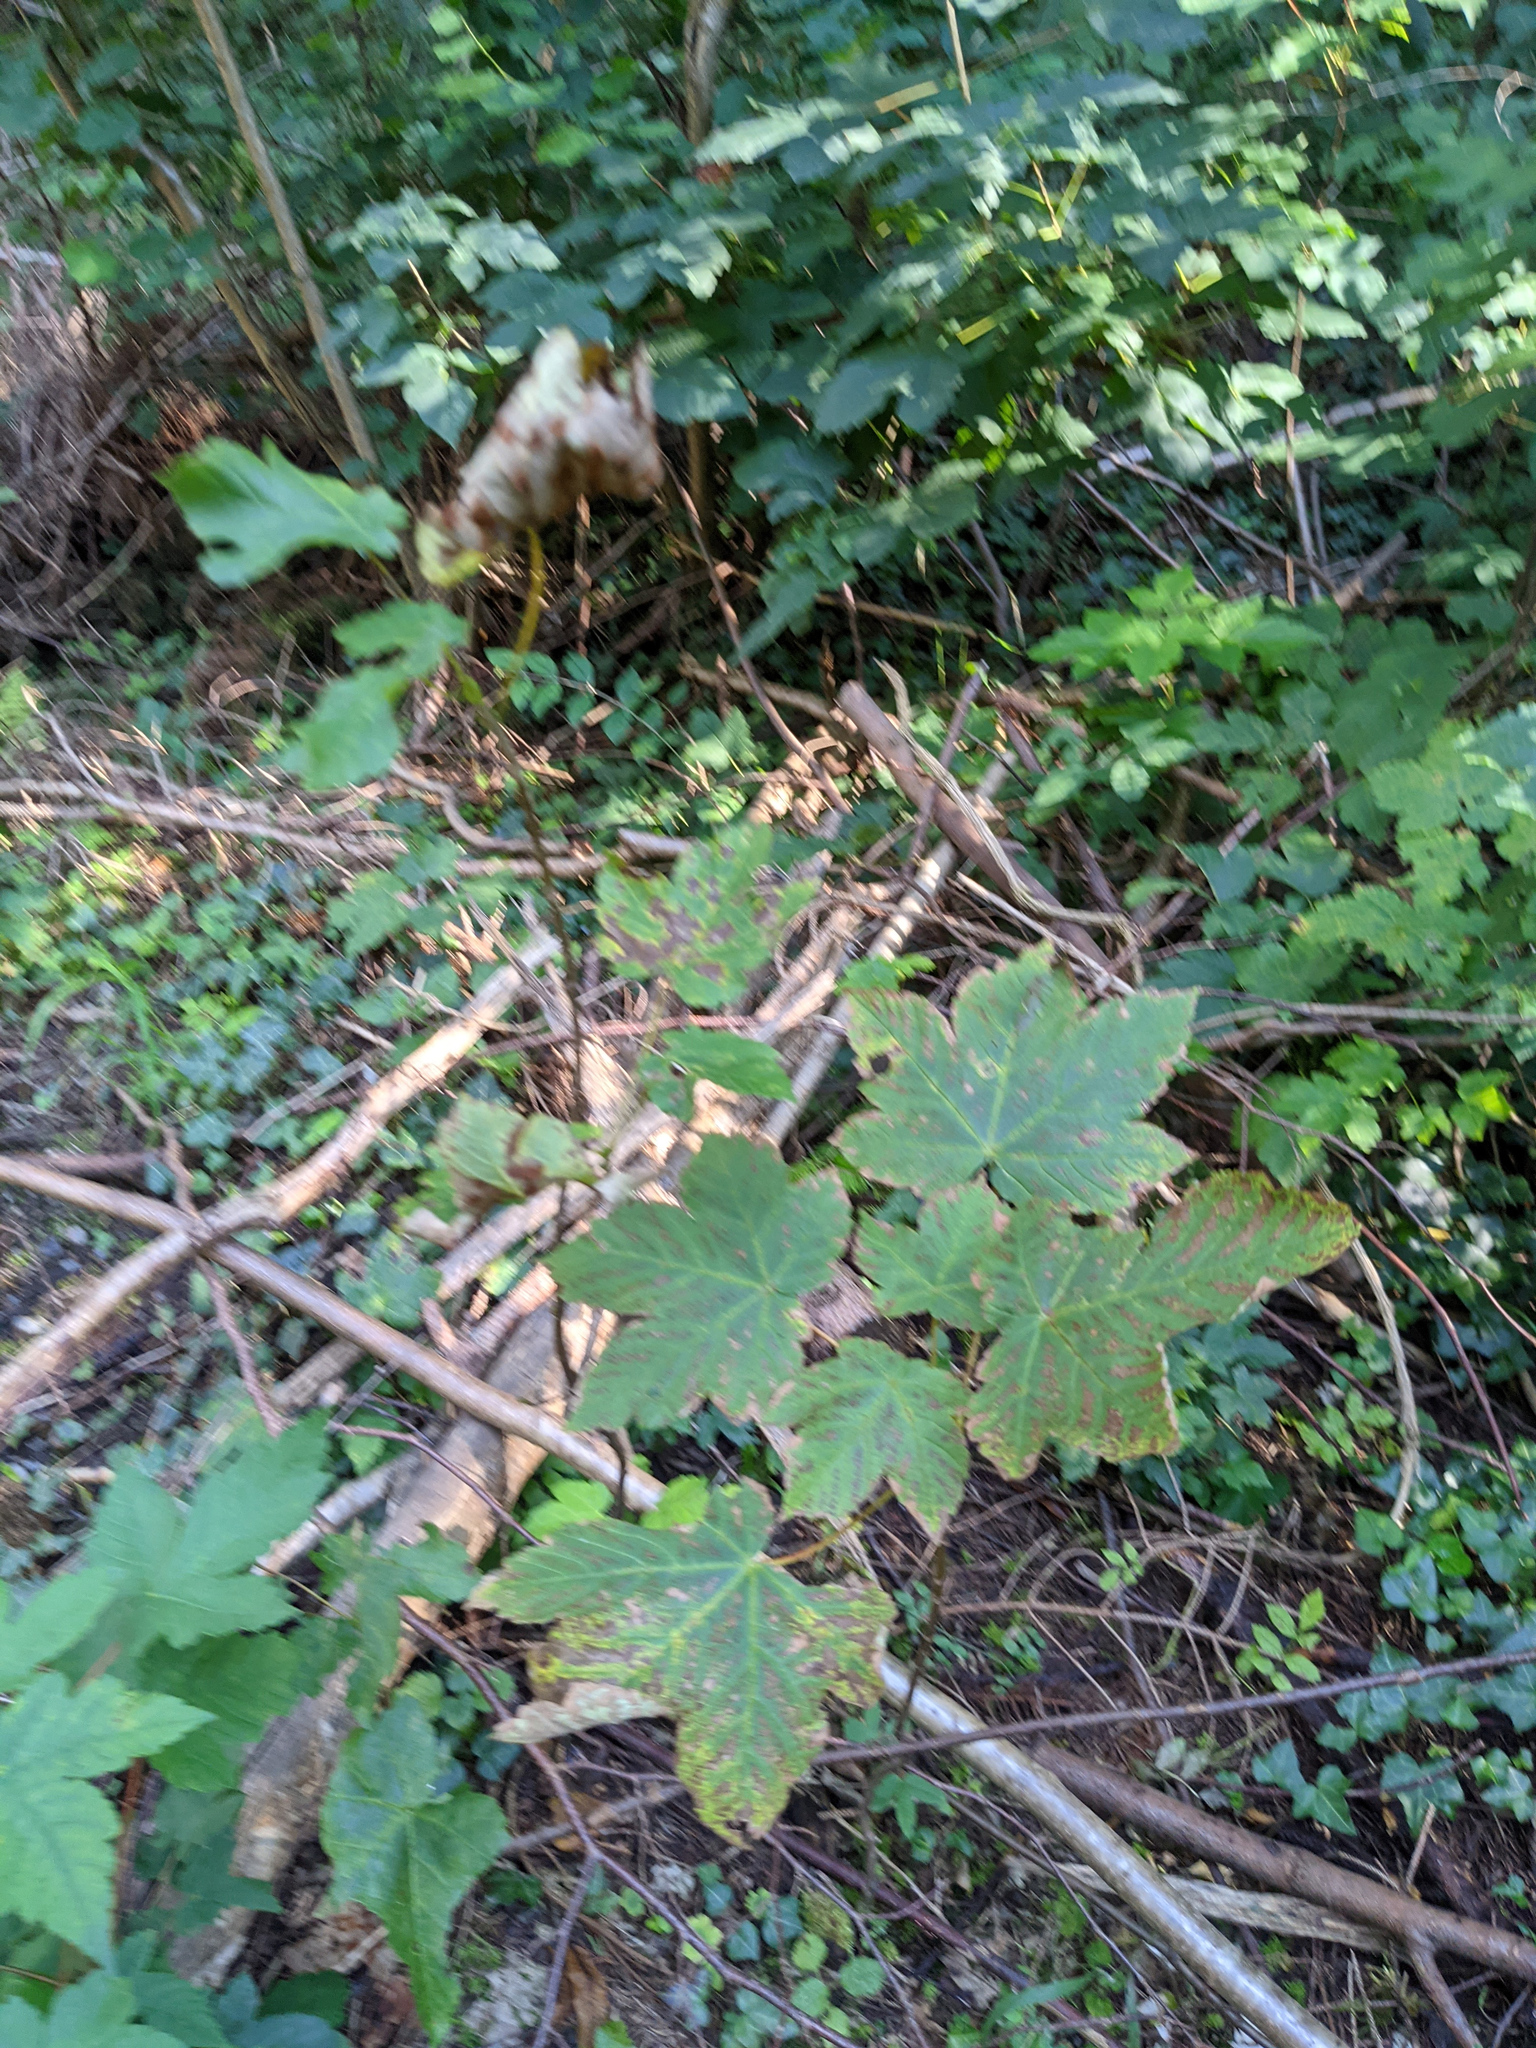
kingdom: Plantae
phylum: Tracheophyta
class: Magnoliopsida
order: Sapindales
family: Sapindaceae
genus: Acer
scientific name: Acer pseudoplatanus
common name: Sycamore
